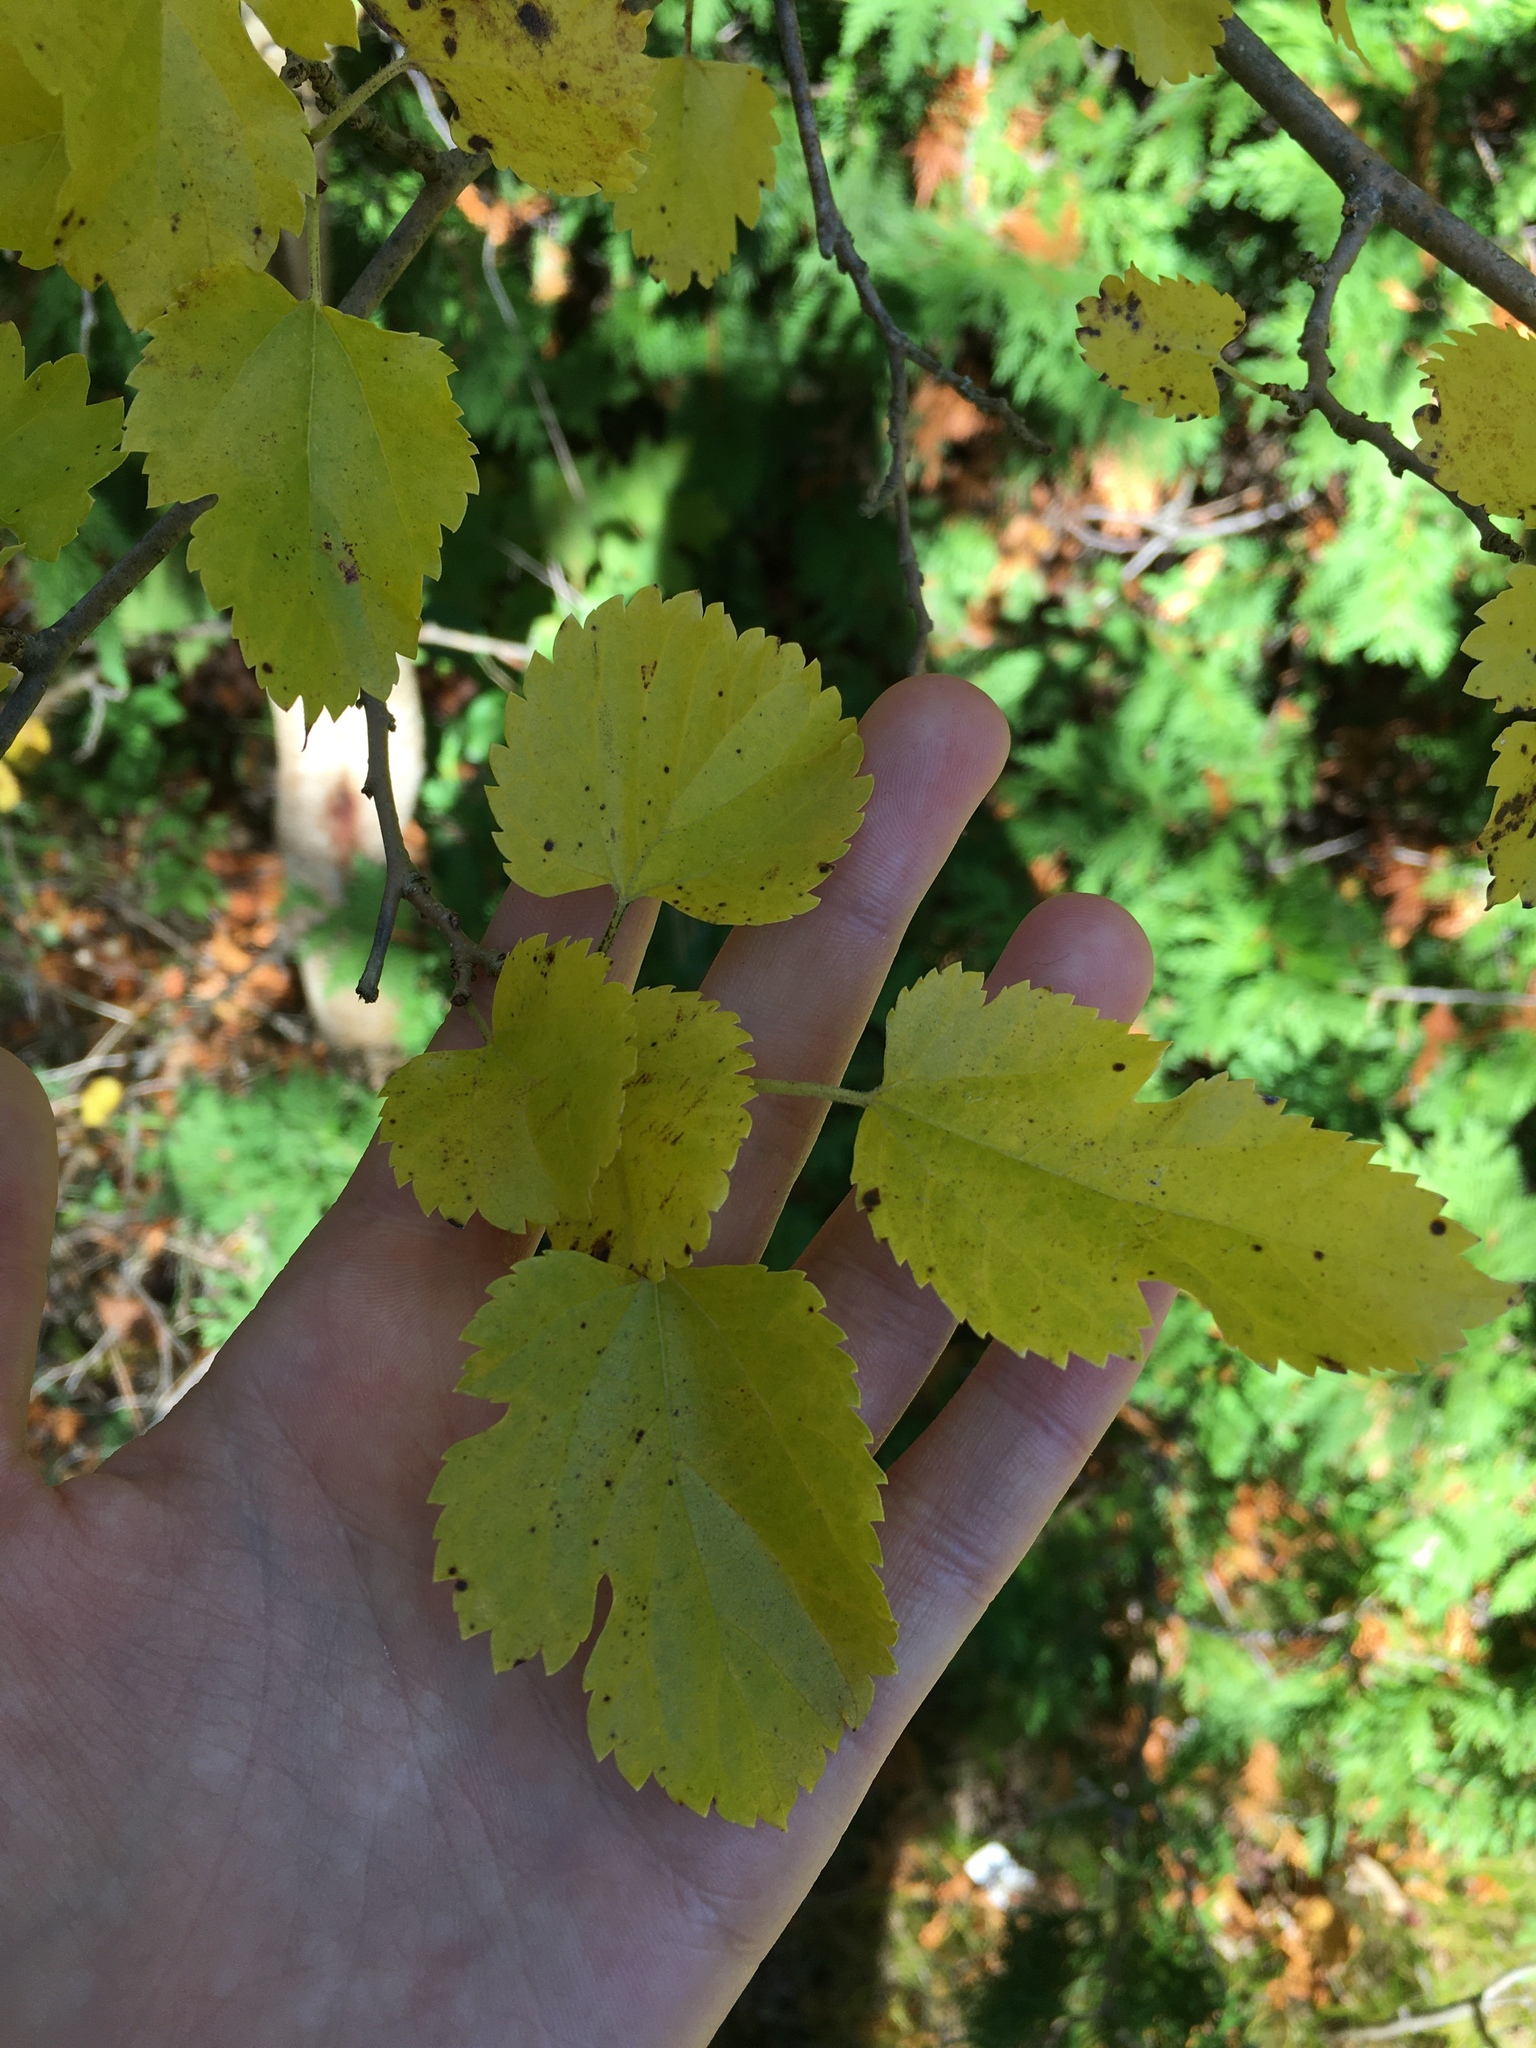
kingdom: Plantae
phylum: Tracheophyta
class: Magnoliopsida
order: Rosales
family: Moraceae
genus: Morus
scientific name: Morus alba
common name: White mulberry
